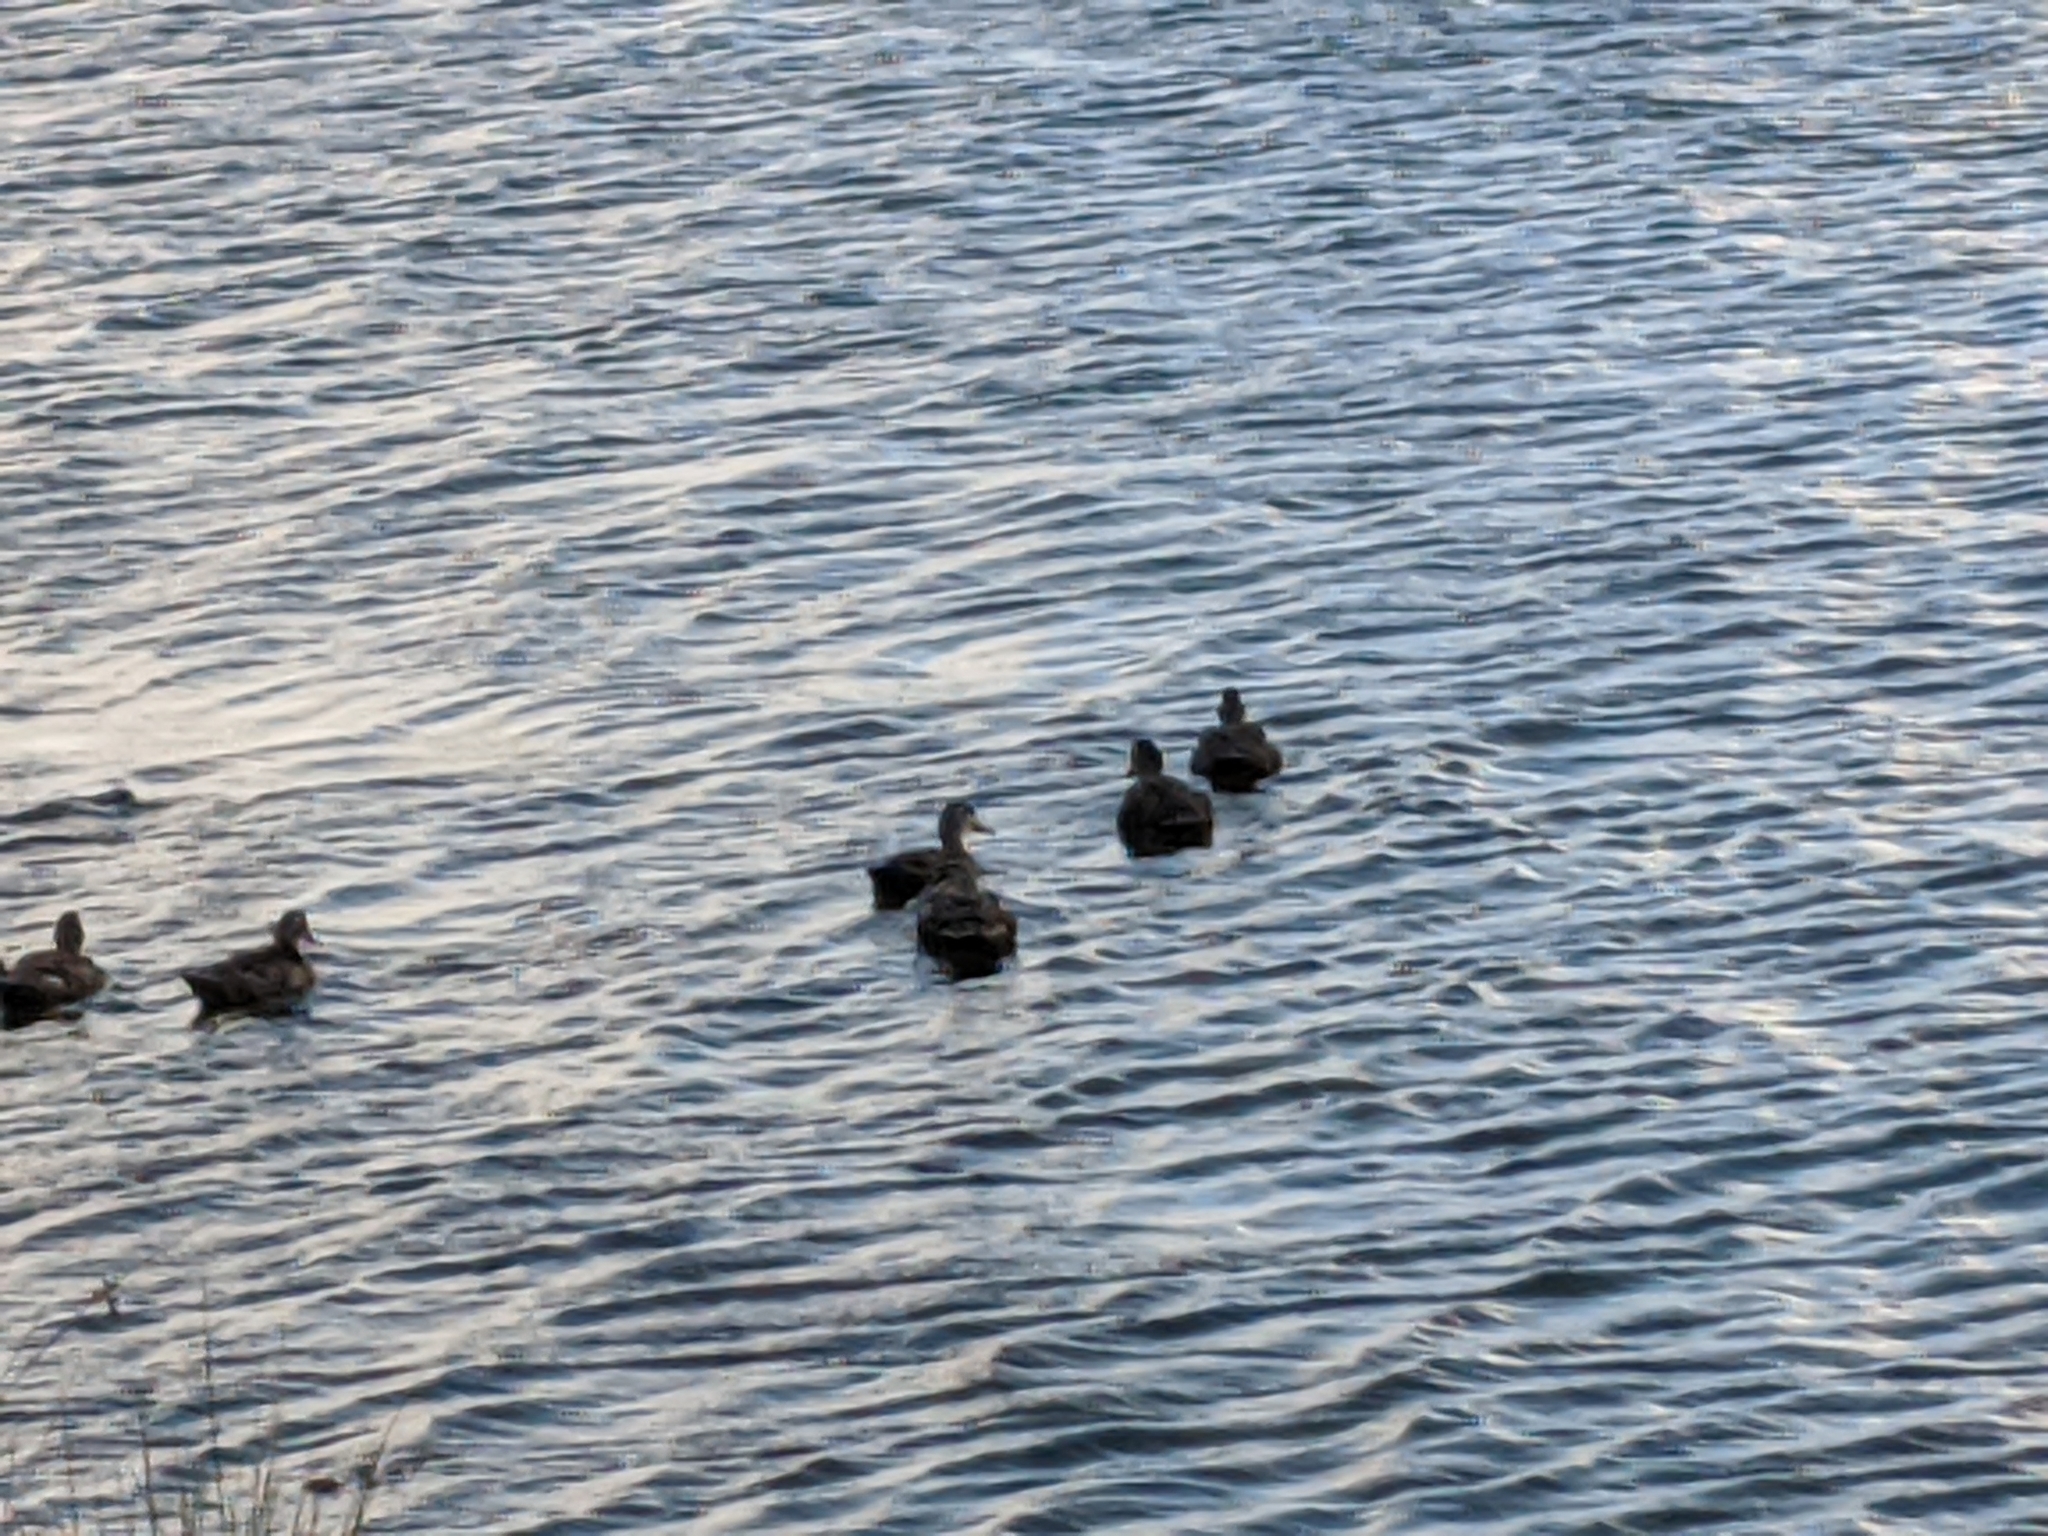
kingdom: Animalia
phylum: Chordata
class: Aves
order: Anseriformes
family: Anatidae
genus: Anas
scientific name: Anas superciliosa
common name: Pacific black duck
